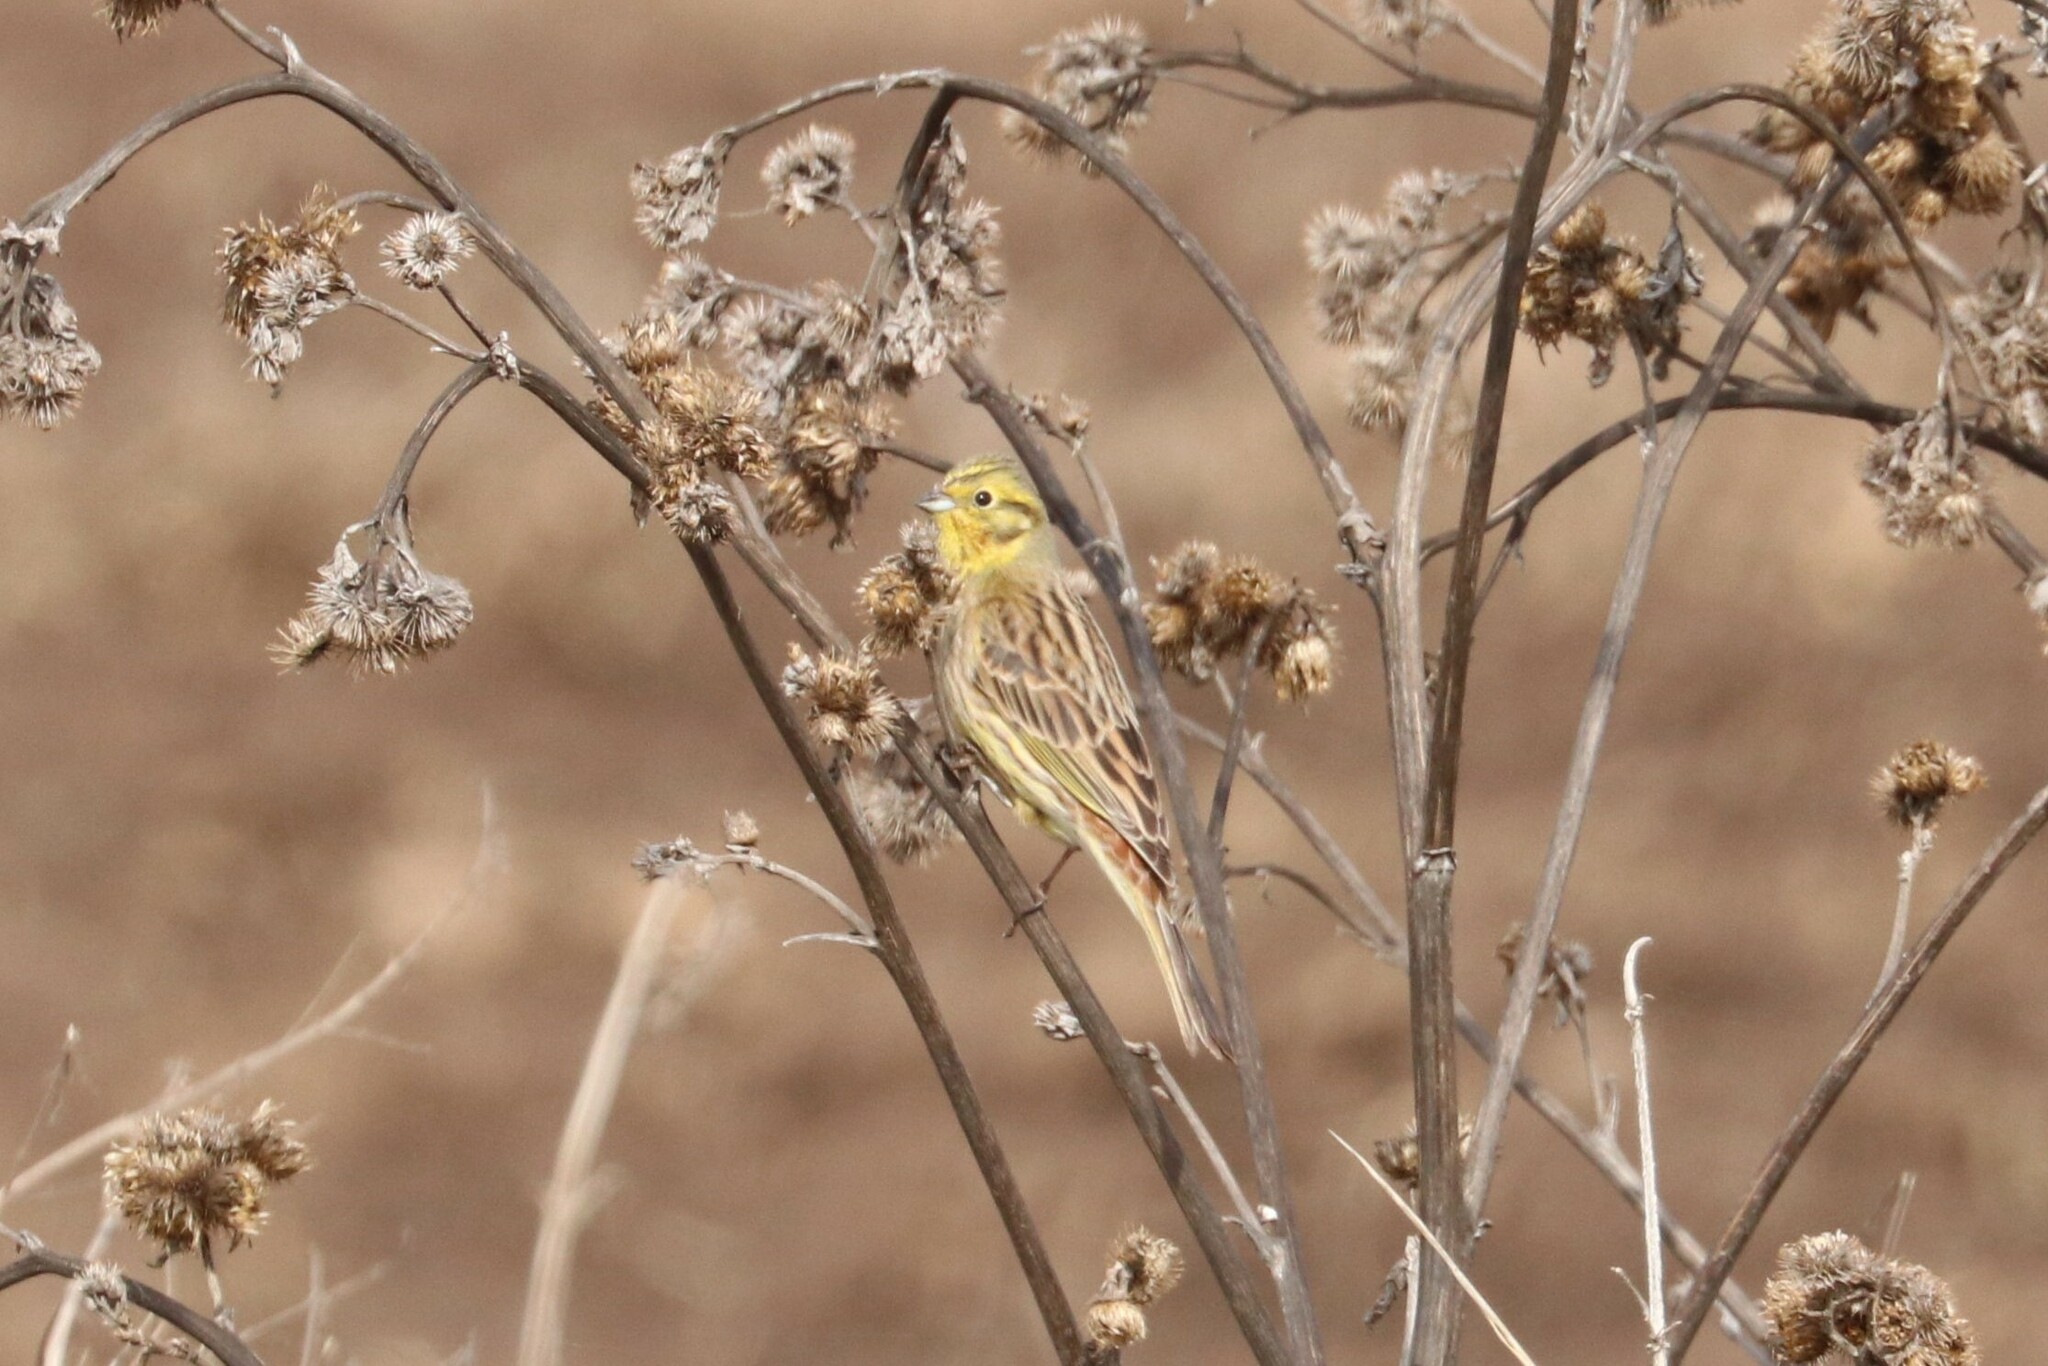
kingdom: Animalia
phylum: Chordata
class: Aves
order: Passeriformes
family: Emberizidae
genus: Emberiza
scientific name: Emberiza citrinella
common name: Yellowhammer
